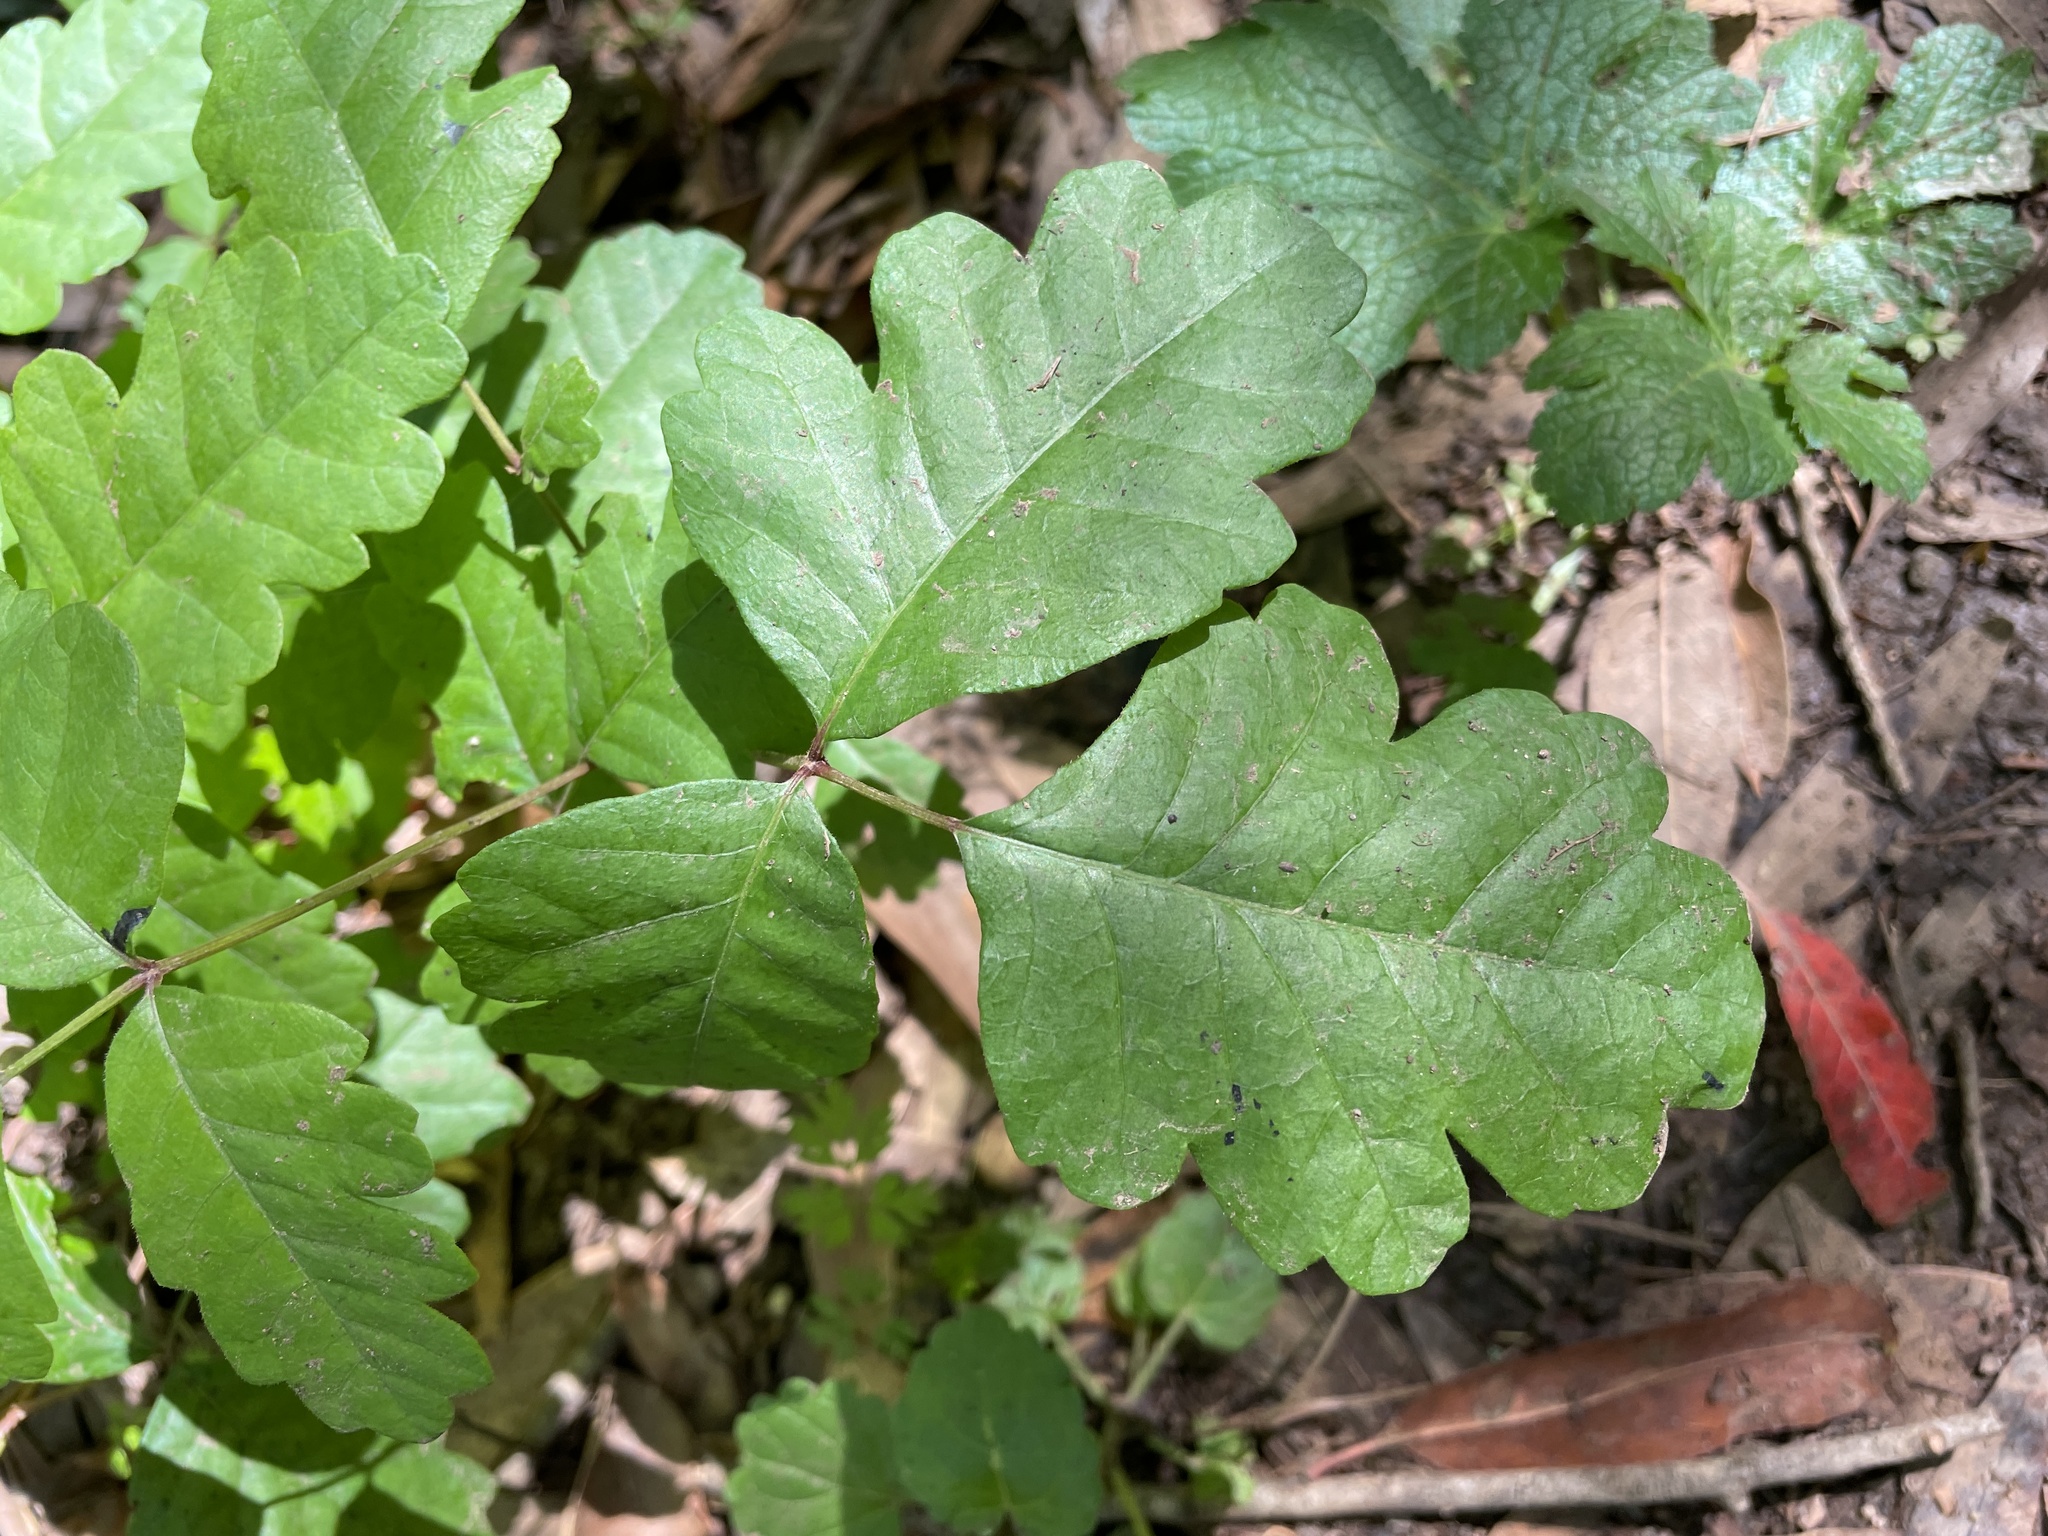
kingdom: Plantae
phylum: Tracheophyta
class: Magnoliopsida
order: Sapindales
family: Anacardiaceae
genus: Toxicodendron
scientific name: Toxicodendron diversilobum
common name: Pacific poison-oak
